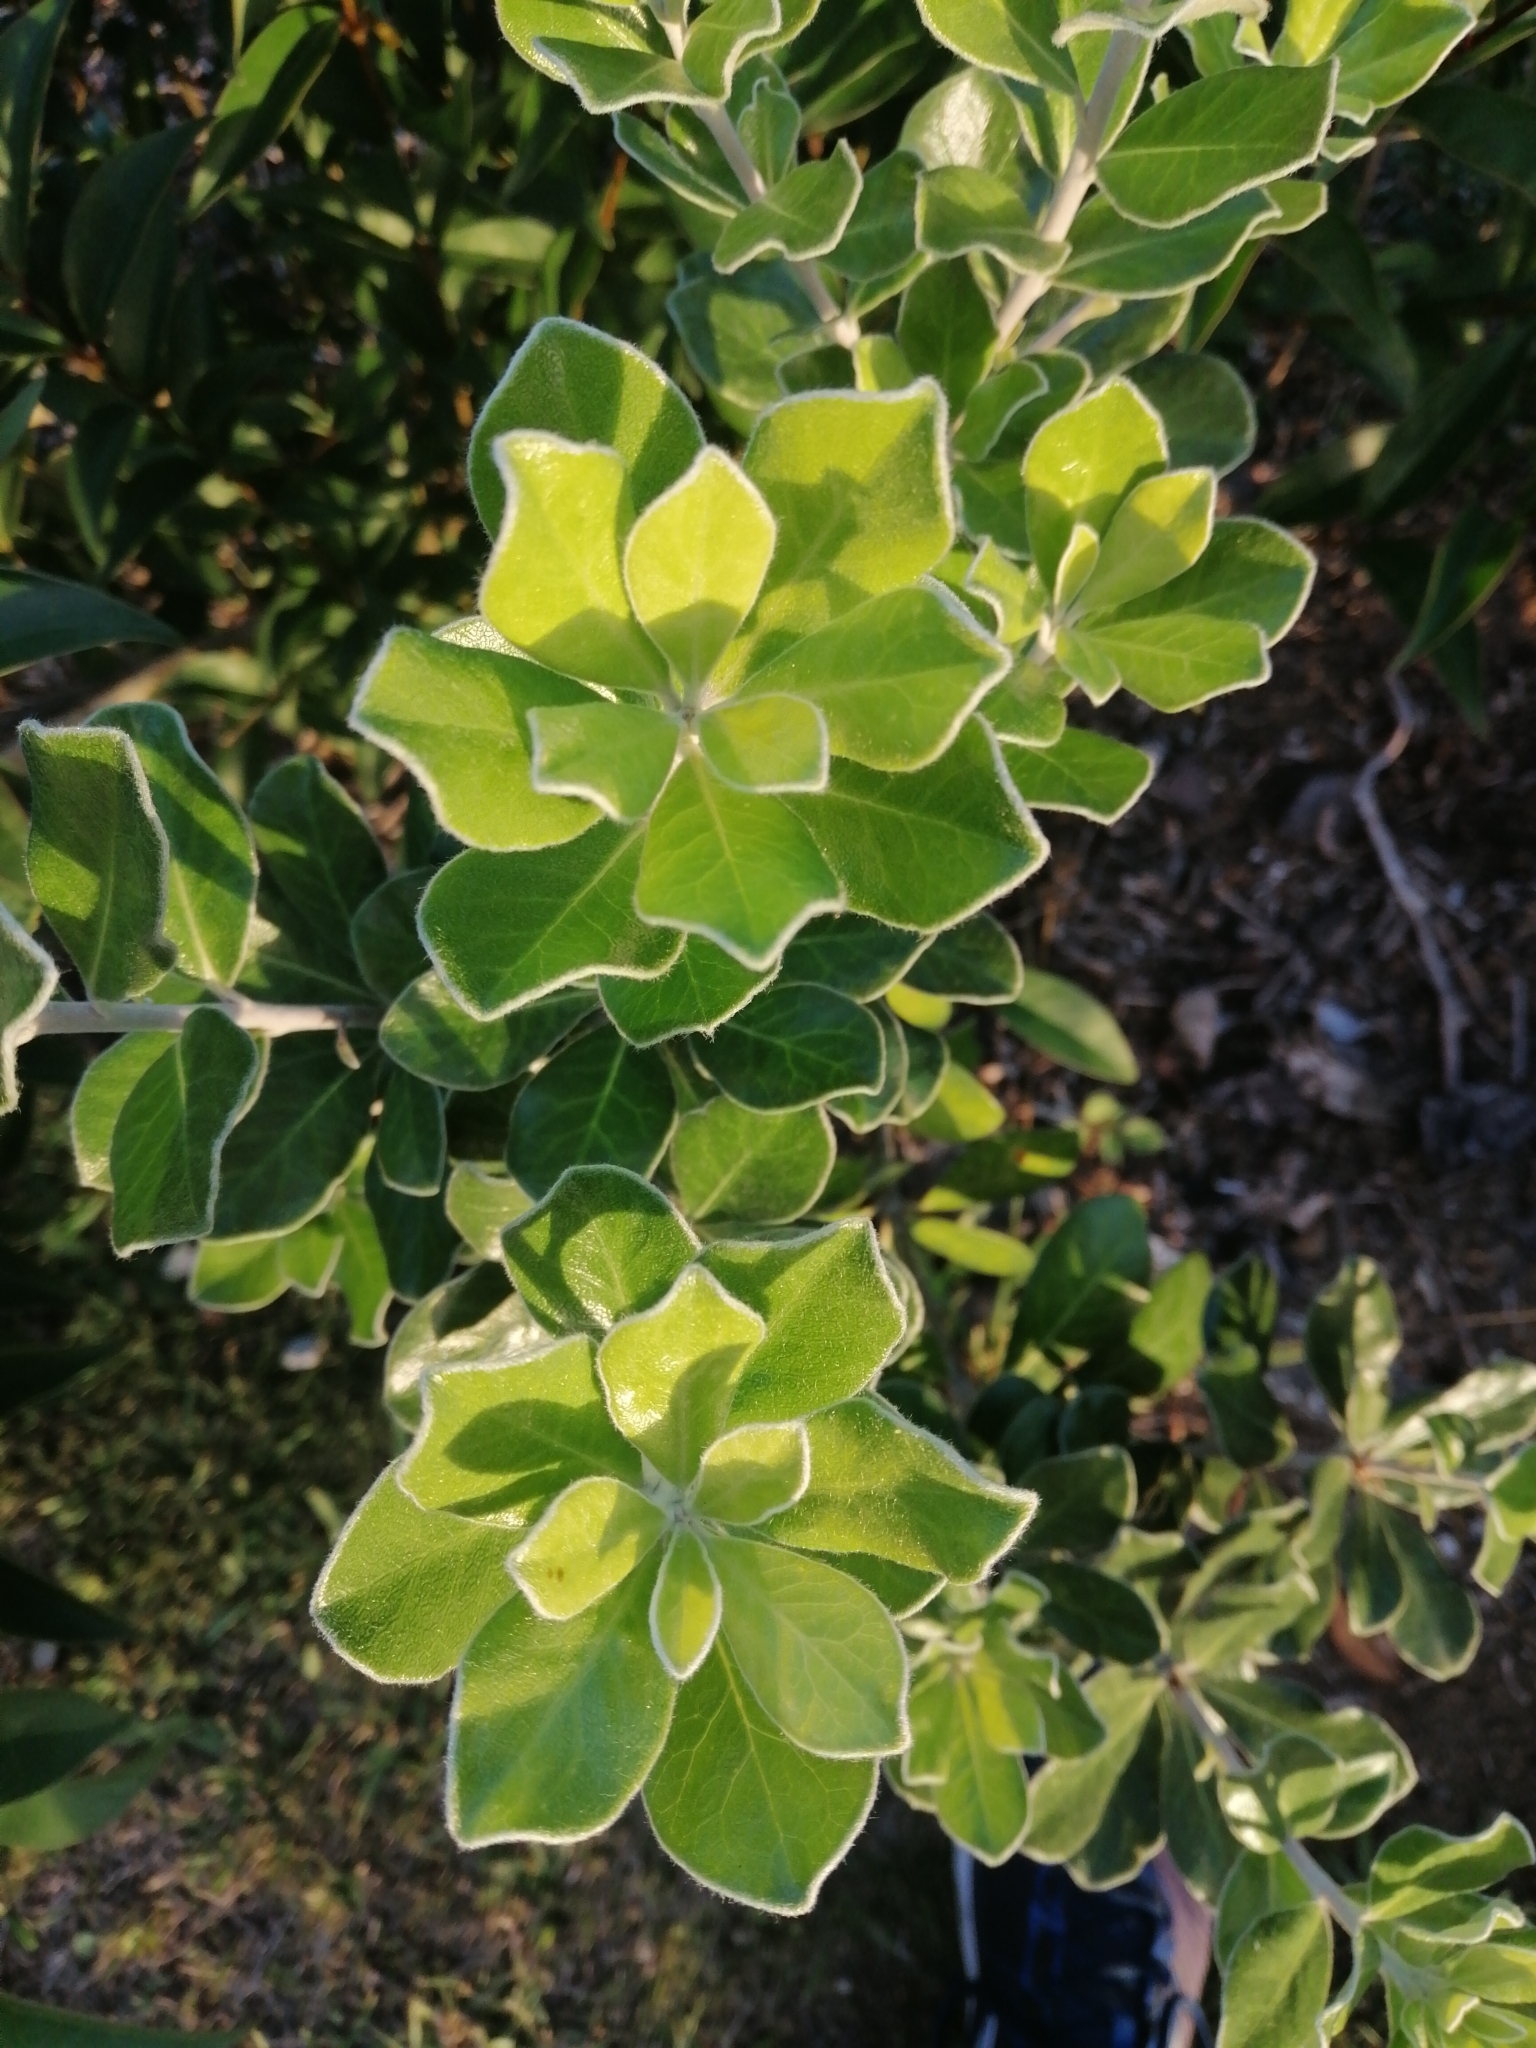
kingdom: Plantae
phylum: Tracheophyta
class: Magnoliopsida
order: Apiales
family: Pittosporaceae
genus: Pittosporum
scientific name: Pittosporum crassifolium
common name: Karo
